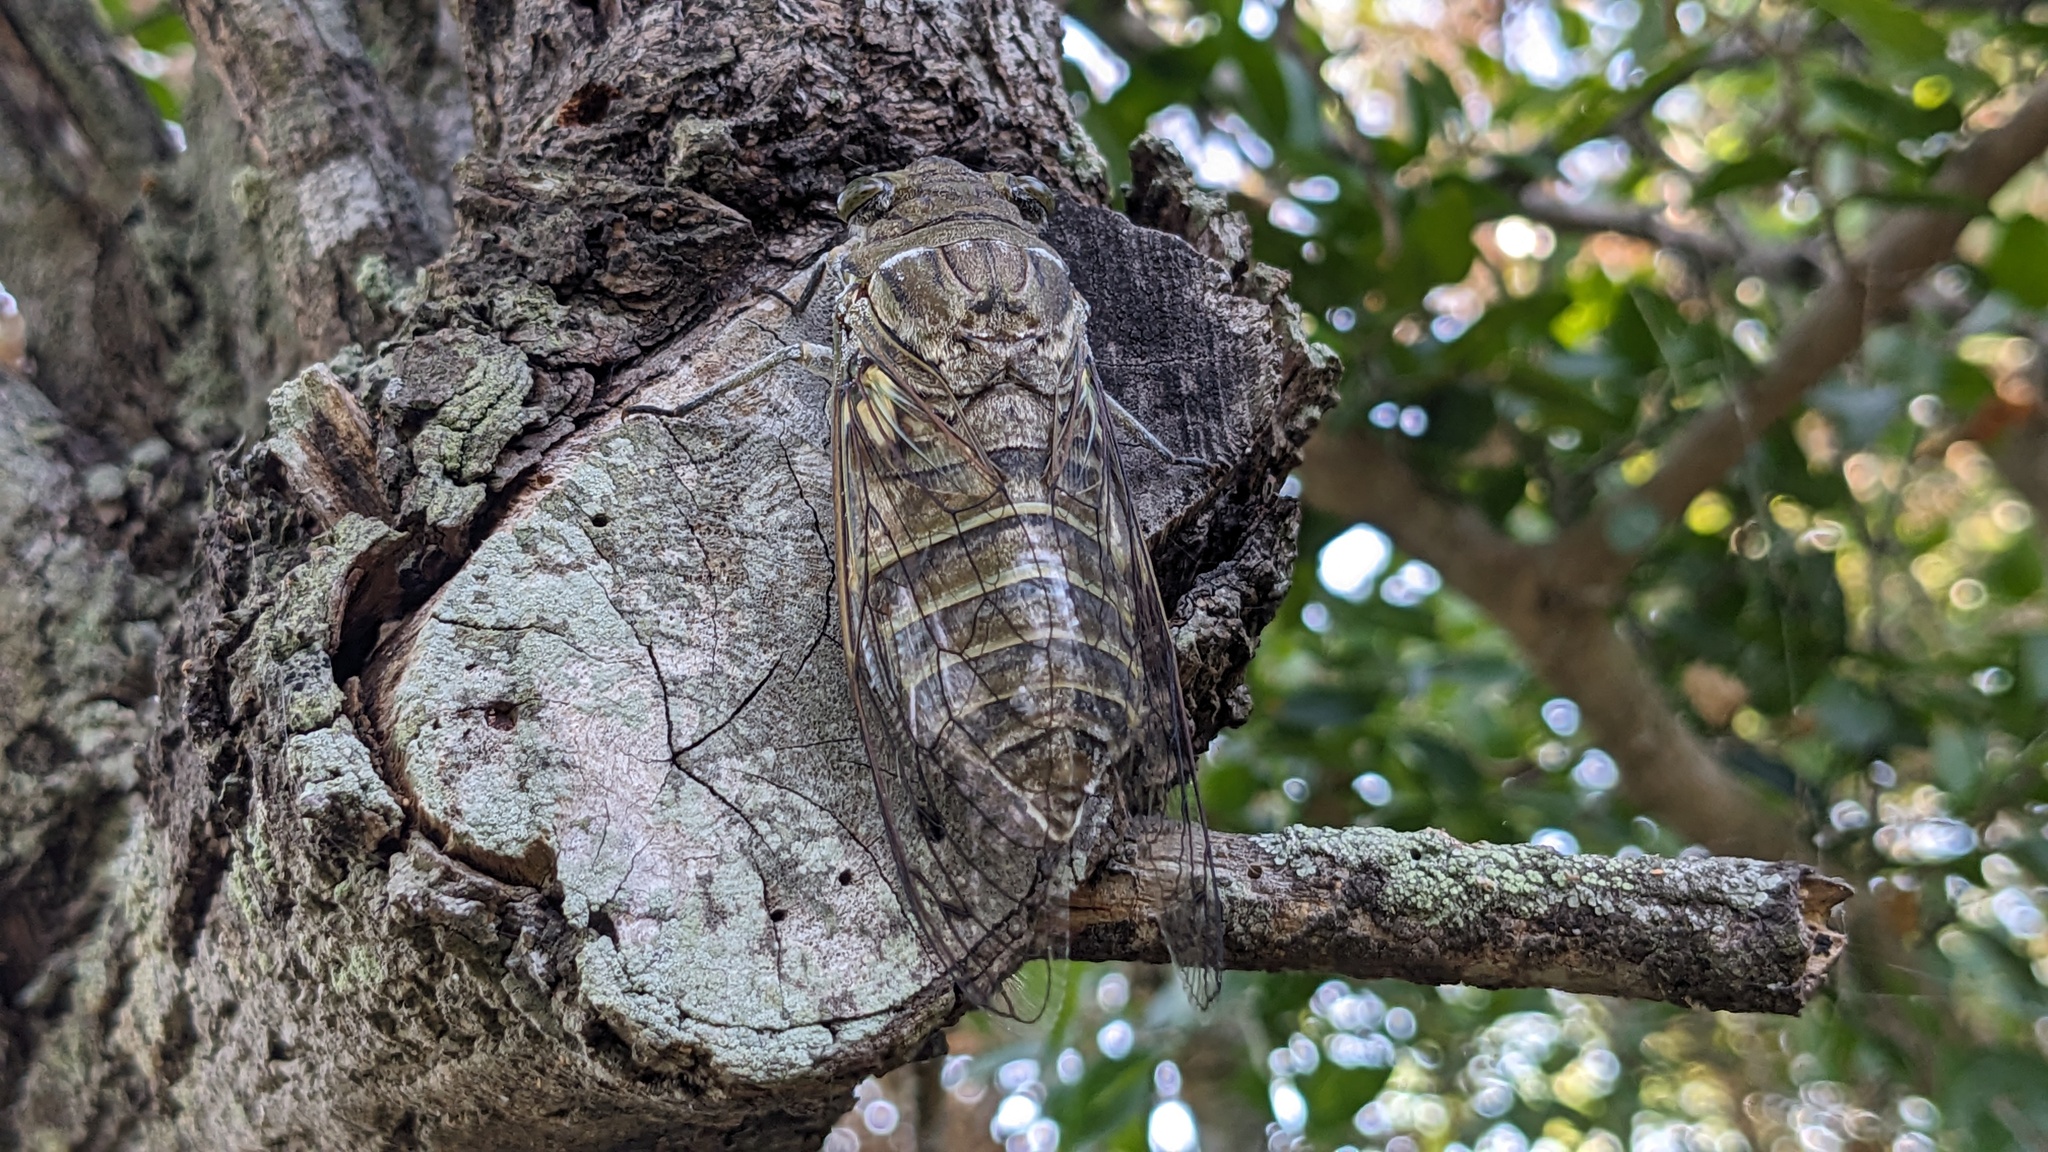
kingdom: Animalia
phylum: Arthropoda
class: Insecta
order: Hemiptera
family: Cicadidae
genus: Quesada
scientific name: Quesada gigas
